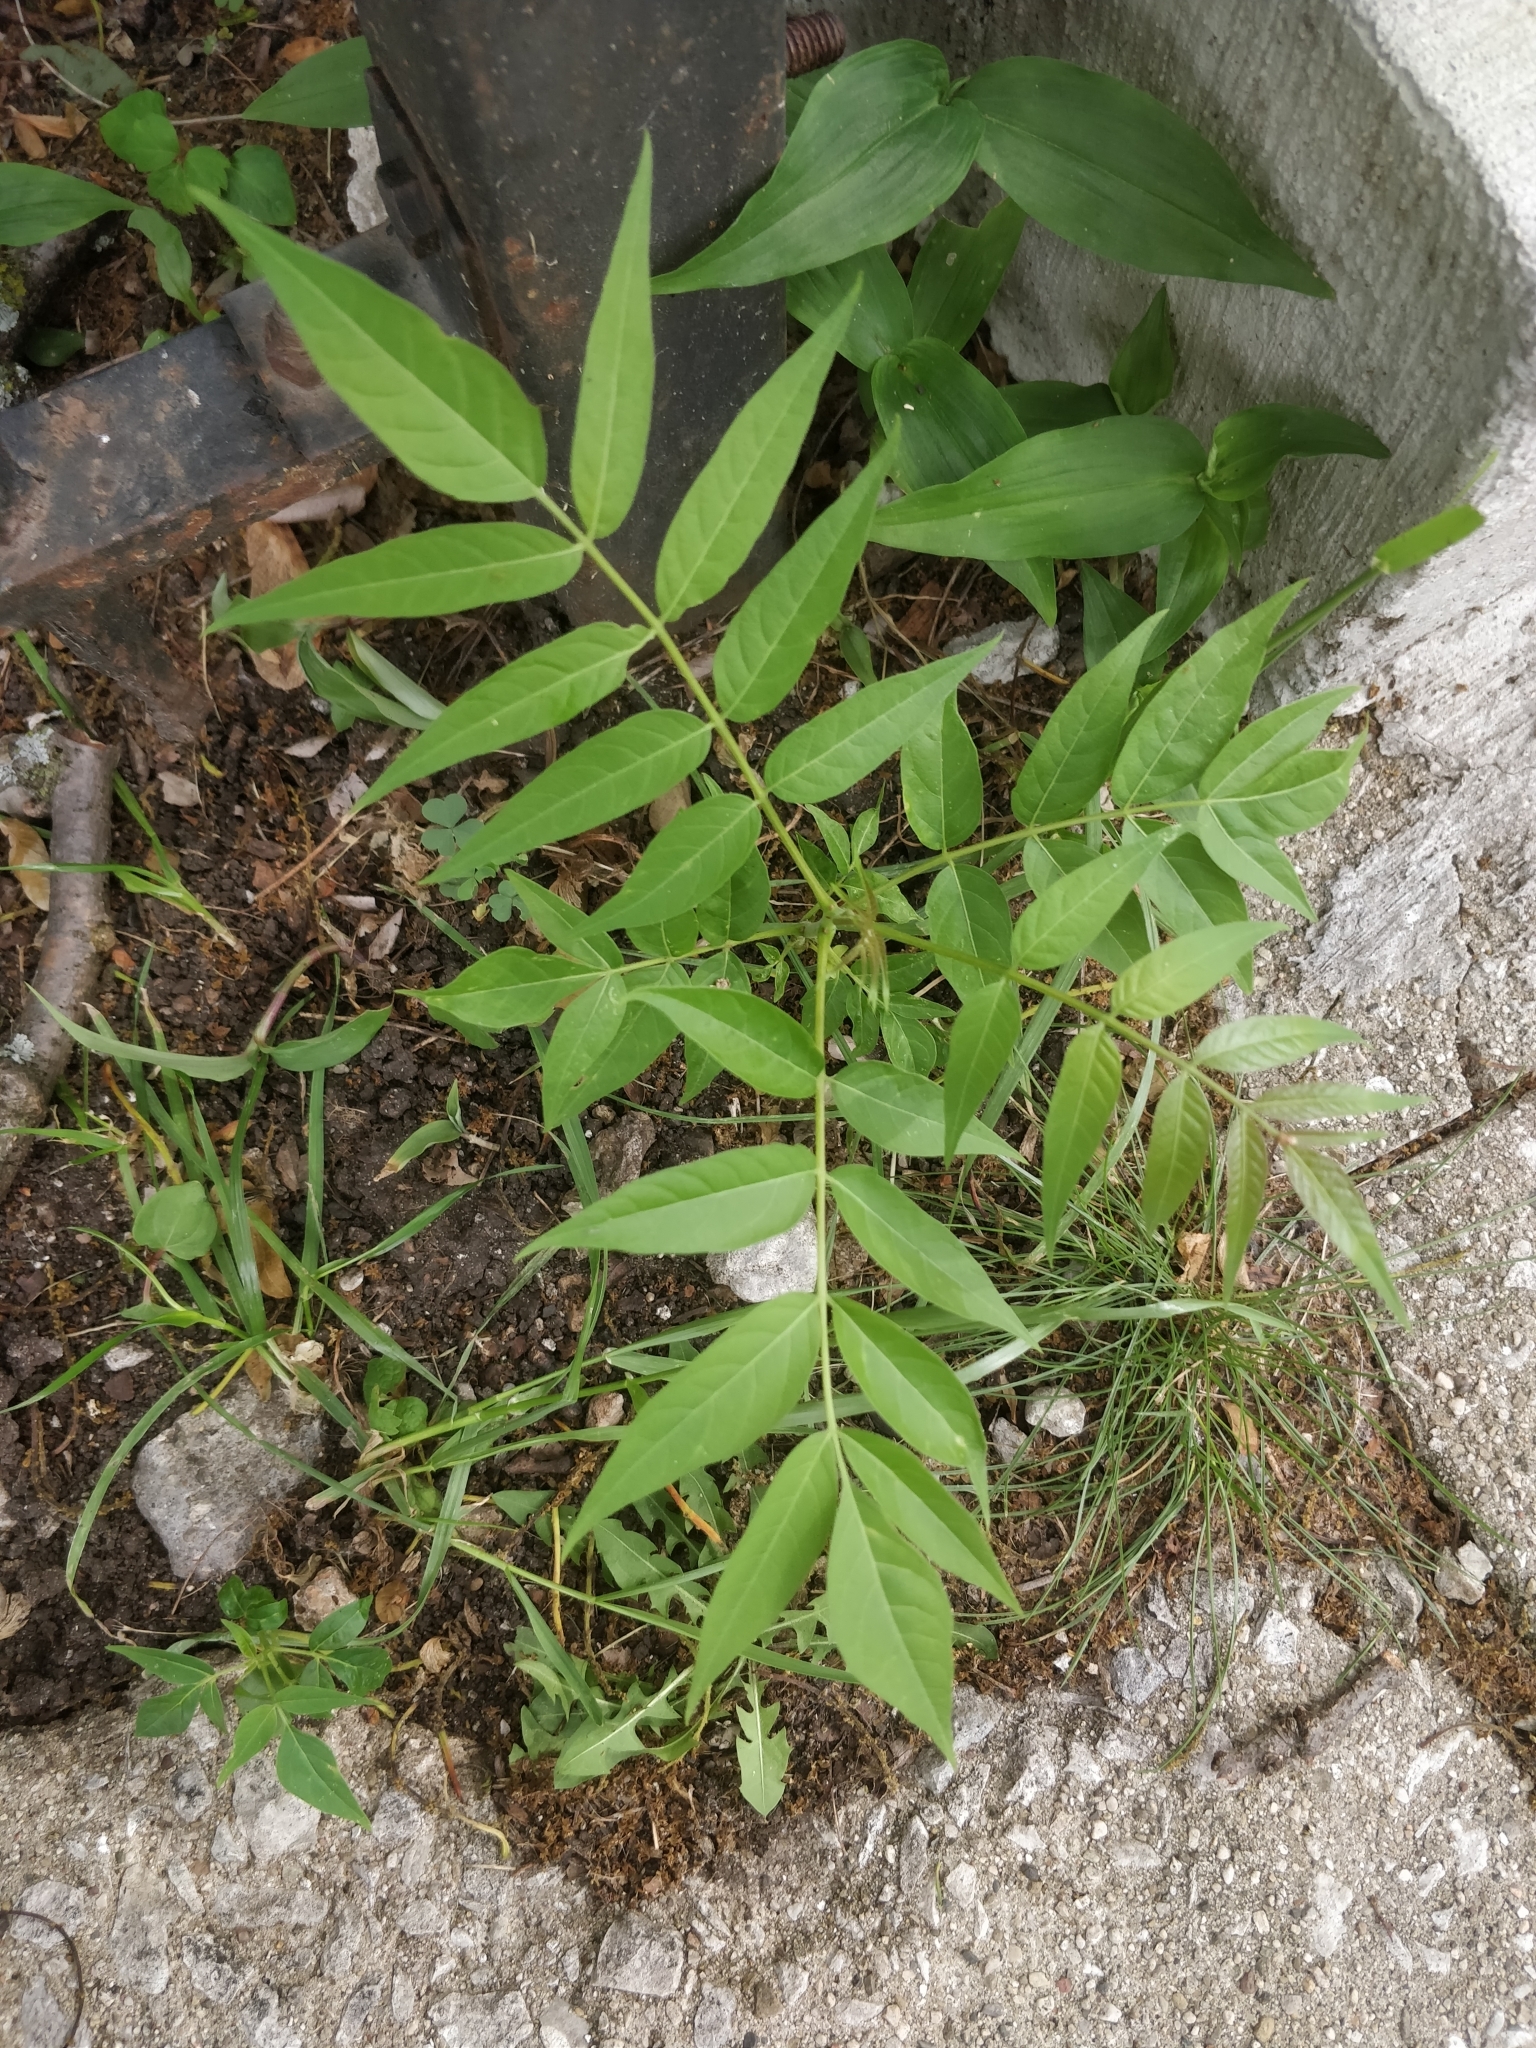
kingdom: Plantae
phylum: Tracheophyta
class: Magnoliopsida
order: Sapindales
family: Simaroubaceae
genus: Ailanthus
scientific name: Ailanthus altissima
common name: Tree-of-heaven
